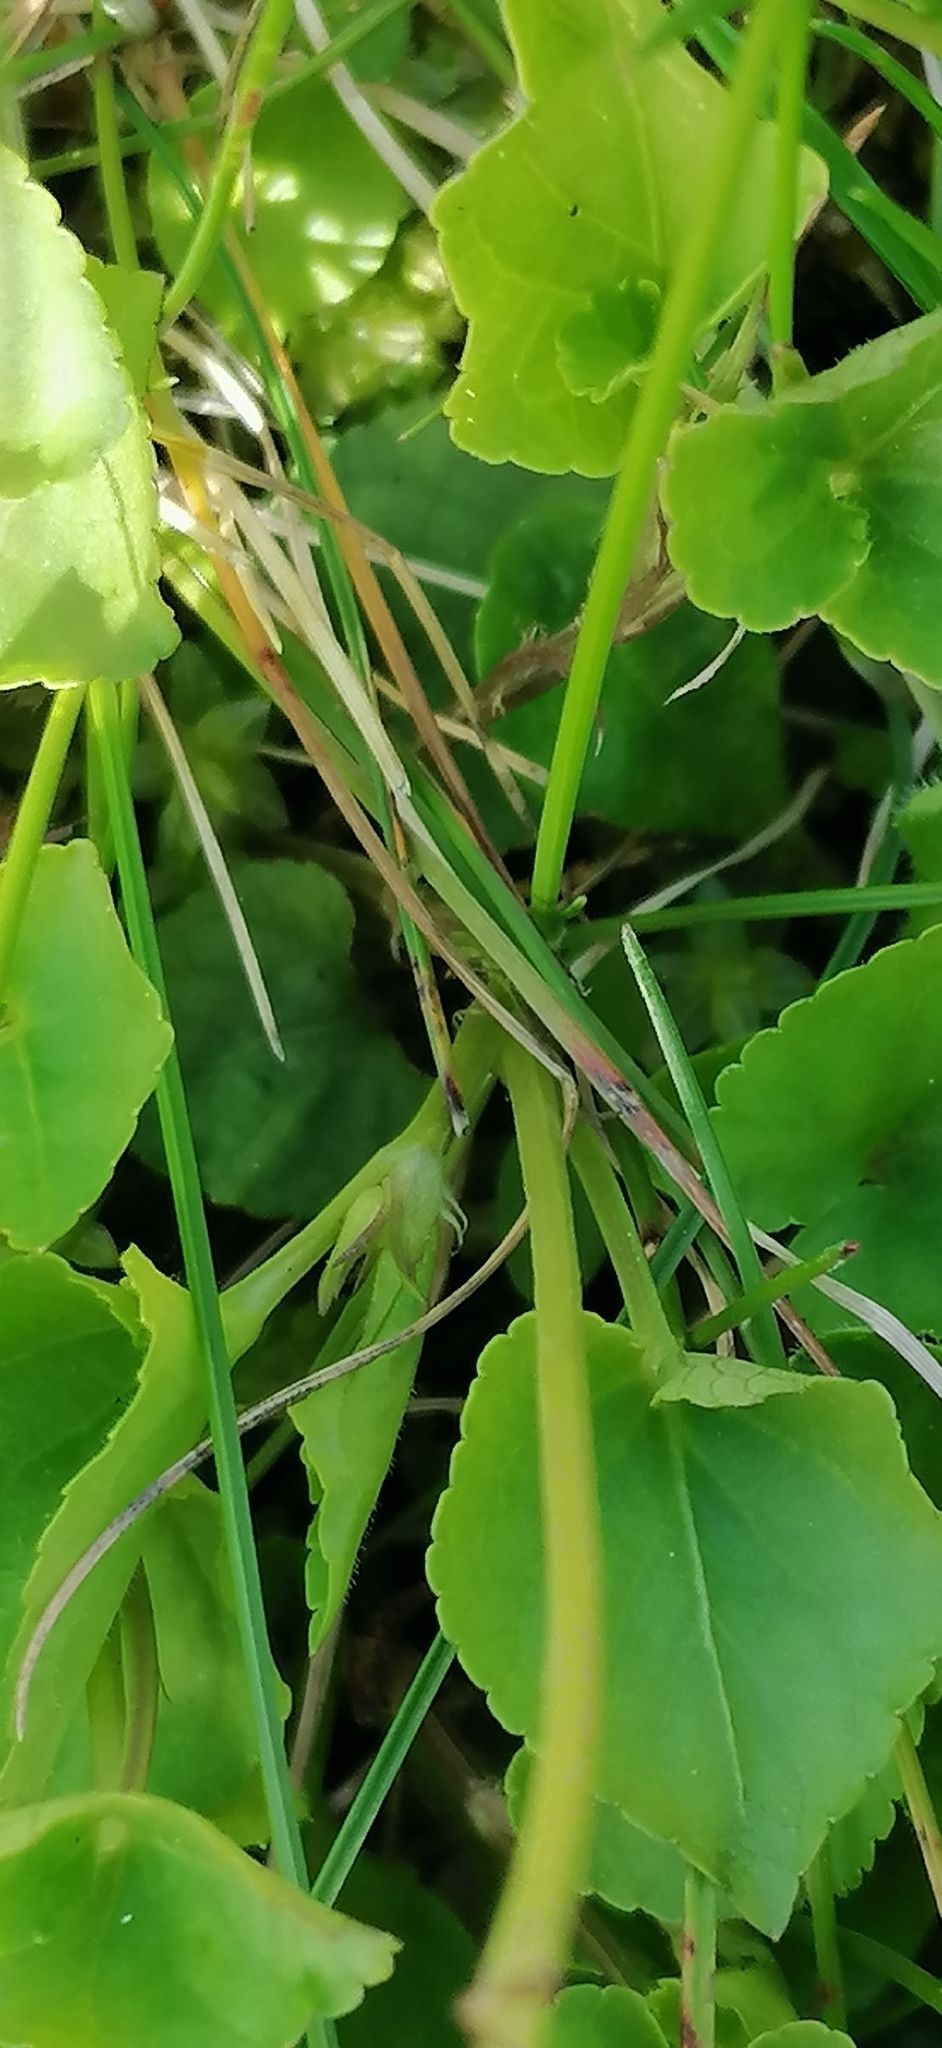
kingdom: Plantae
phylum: Tracheophyta
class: Magnoliopsida
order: Malpighiales
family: Violaceae
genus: Viola
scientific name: Viola riviniana
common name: Common dog-violet
